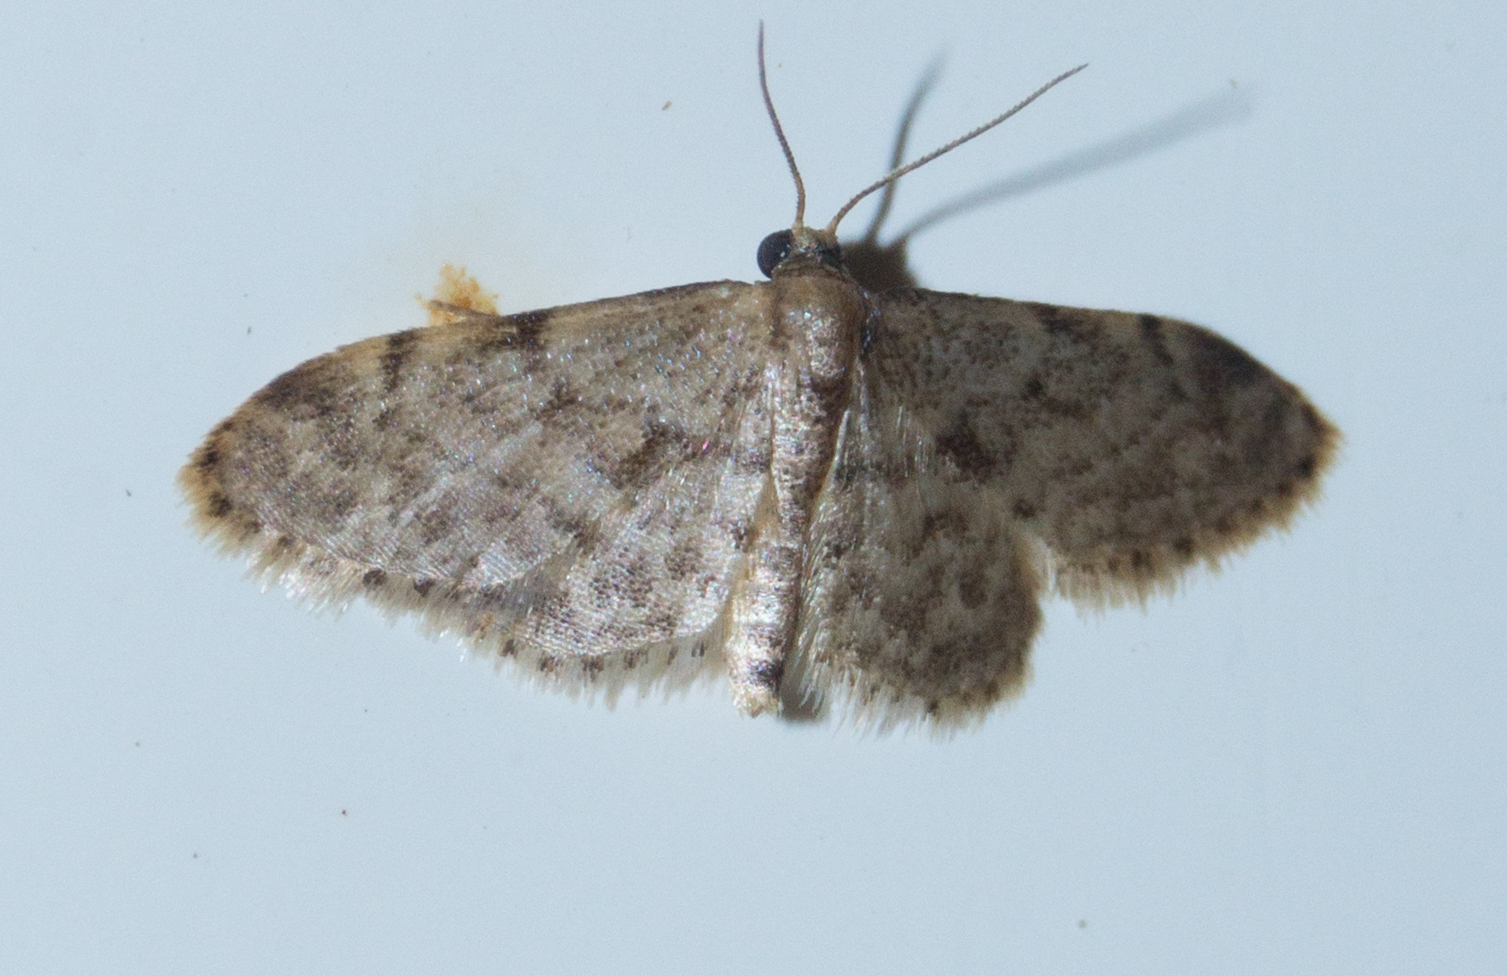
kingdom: Animalia
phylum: Arthropoda
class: Insecta
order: Lepidoptera
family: Geometridae
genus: Idaea
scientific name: Idaea inquinata
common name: Rusty wave
